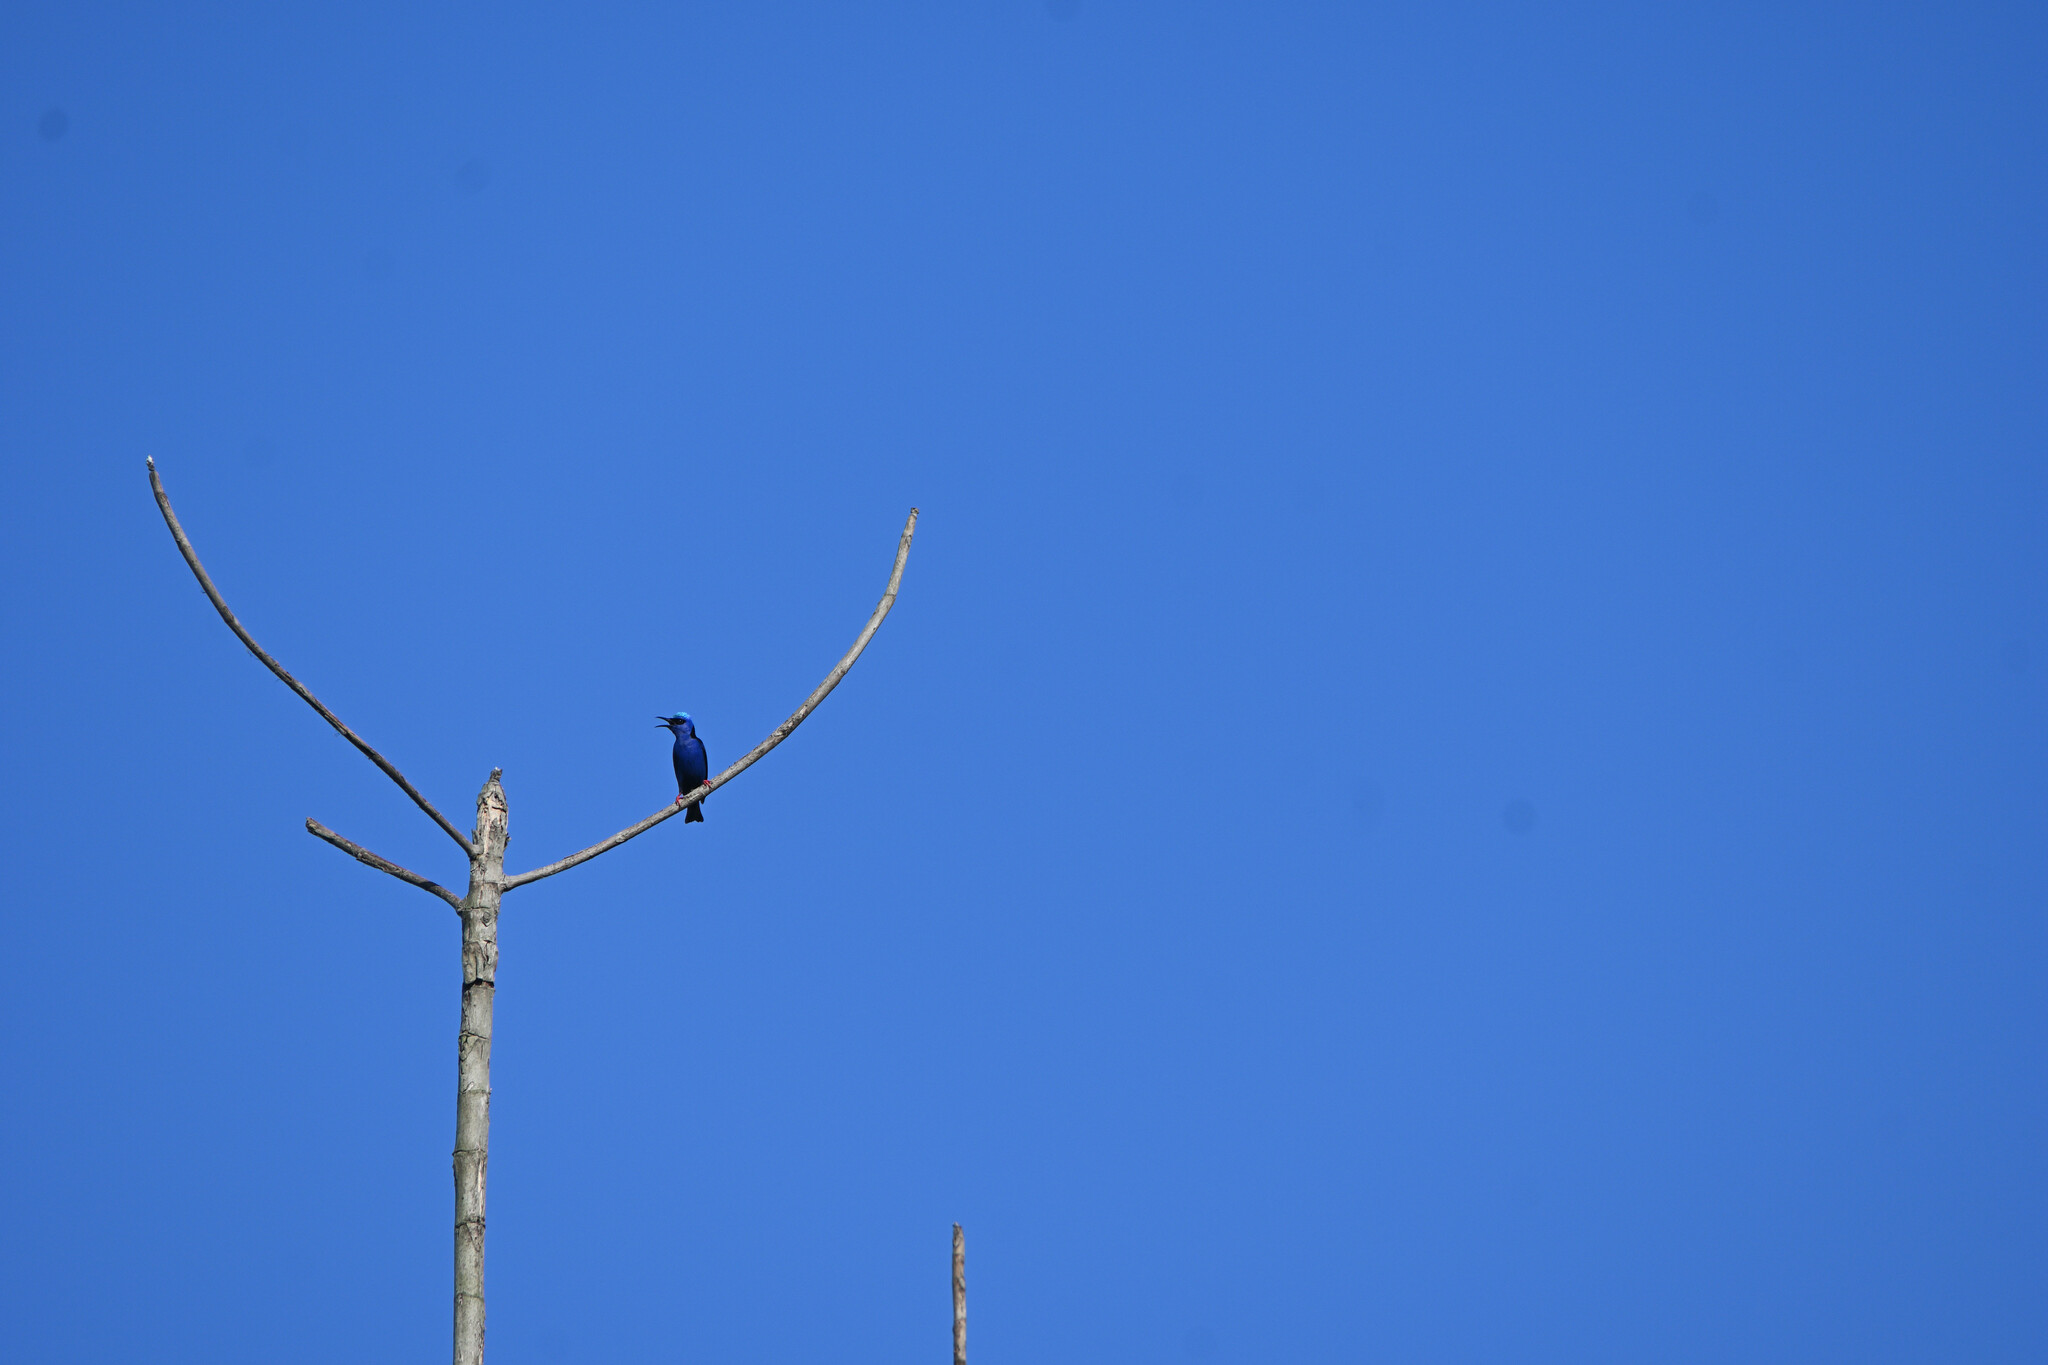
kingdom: Animalia
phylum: Chordata
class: Aves
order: Passeriformes
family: Thraupidae
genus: Cyanerpes
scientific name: Cyanerpes cyaneus
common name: Red-legged honeycreeper
